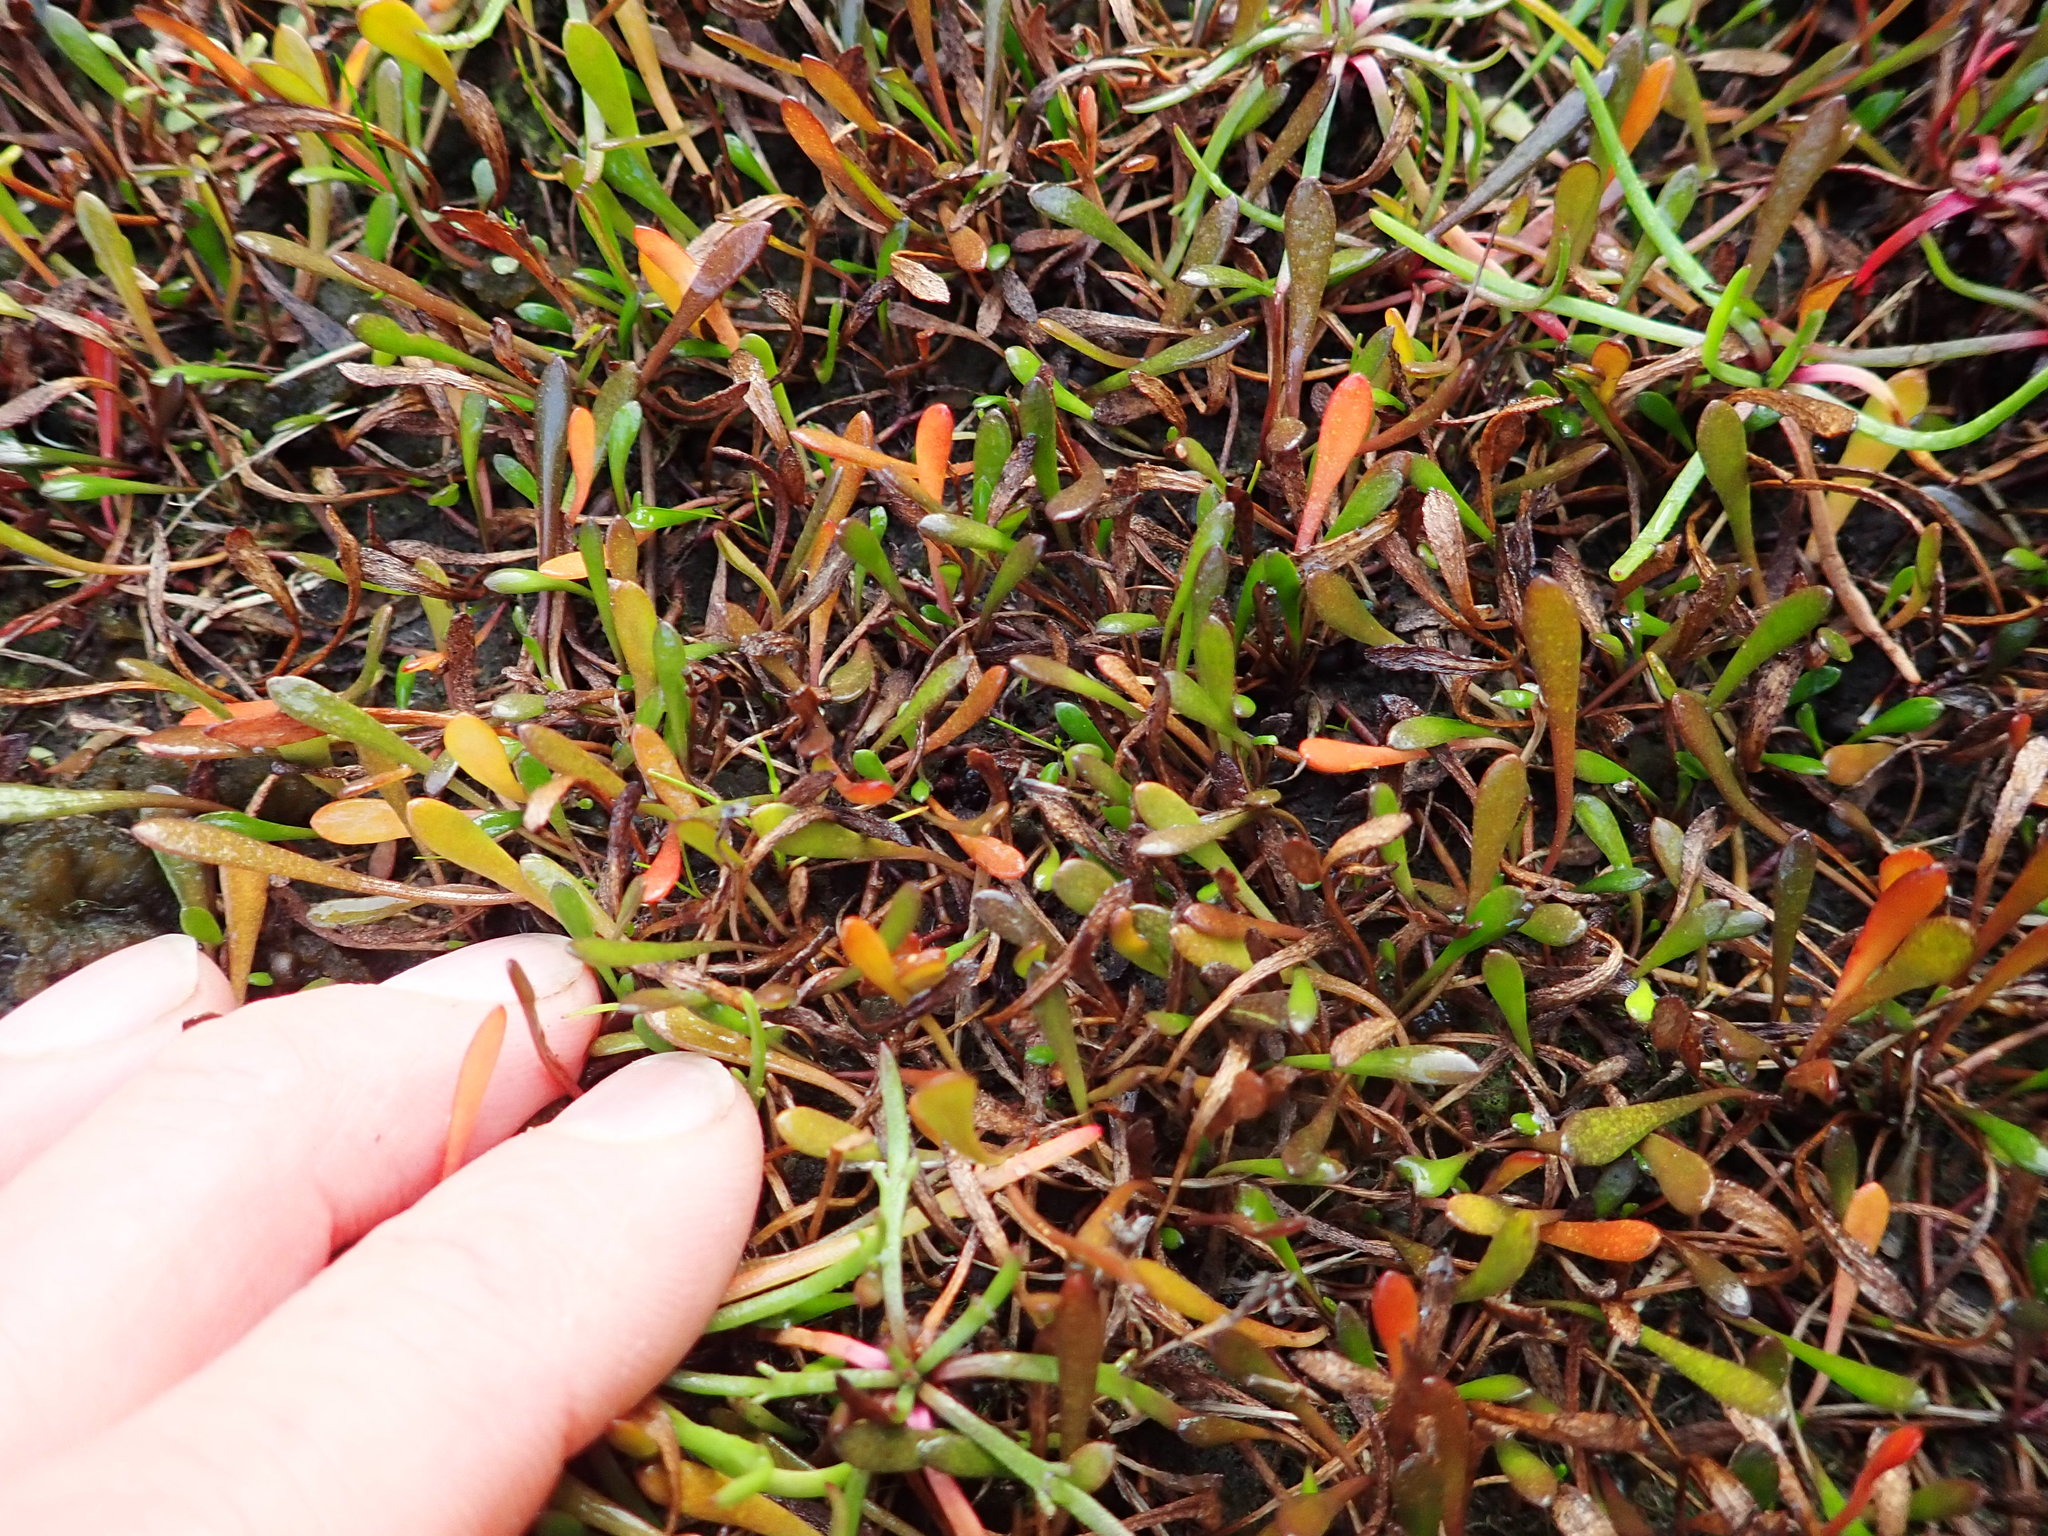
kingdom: Plantae
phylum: Tracheophyta
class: Magnoliopsida
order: Asterales
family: Goodeniaceae
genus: Goodenia
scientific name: Goodenia radicans
